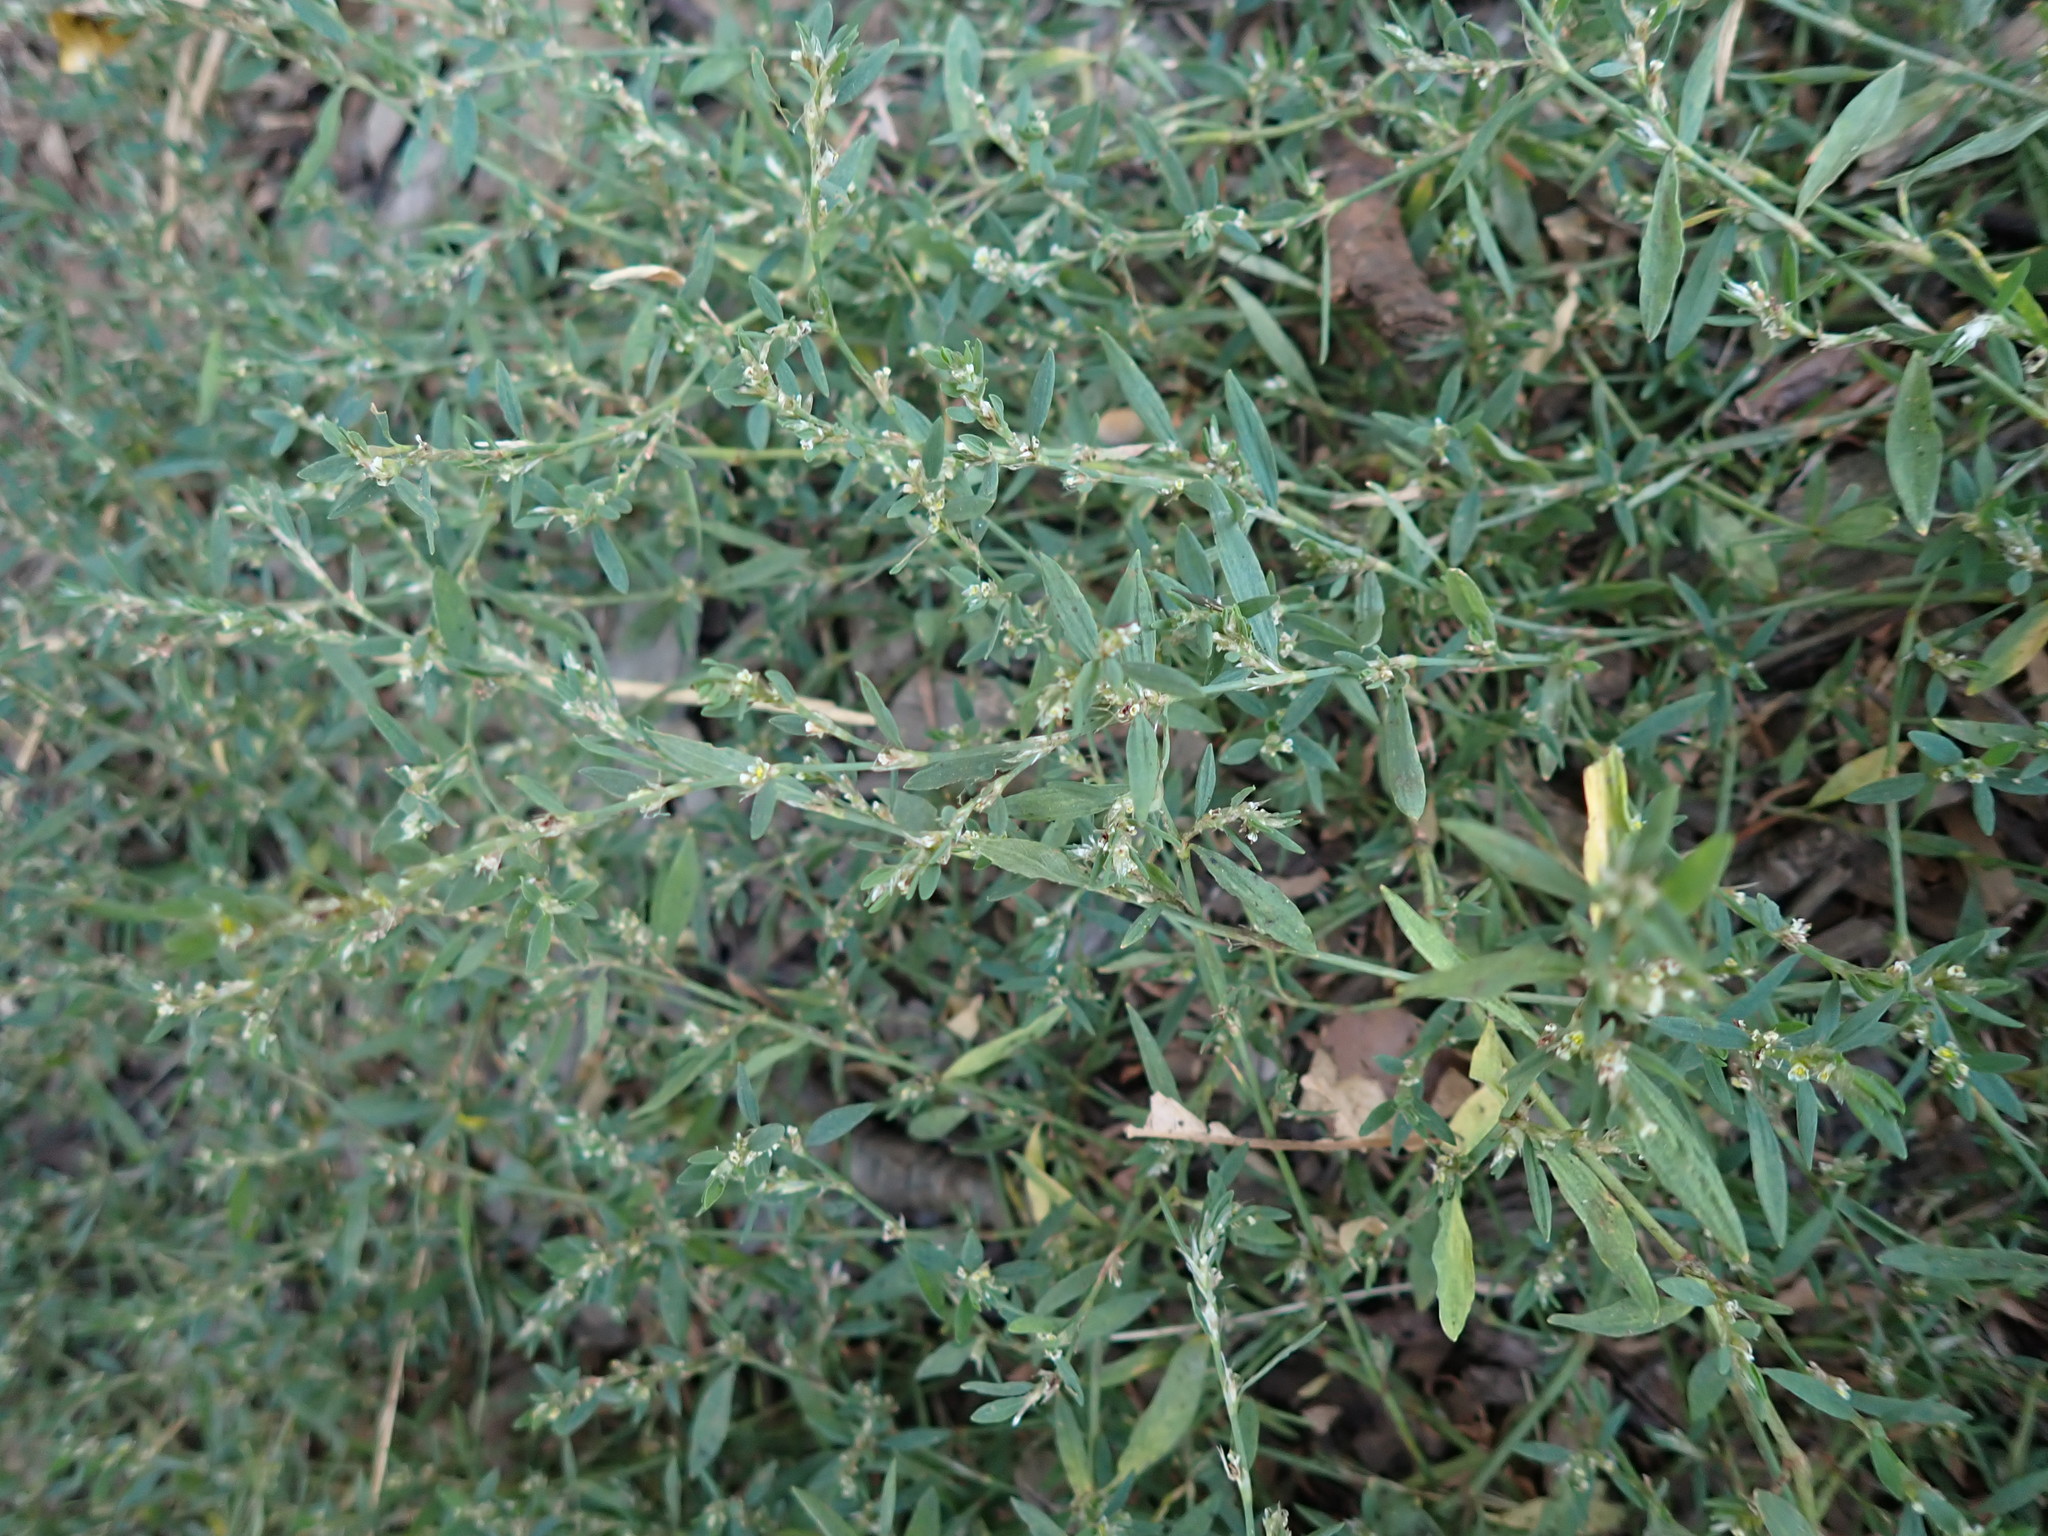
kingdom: Plantae
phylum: Tracheophyta
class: Magnoliopsida
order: Caryophyllales
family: Polygonaceae
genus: Polygonum
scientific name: Polygonum aviculare
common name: Prostrate knotweed
